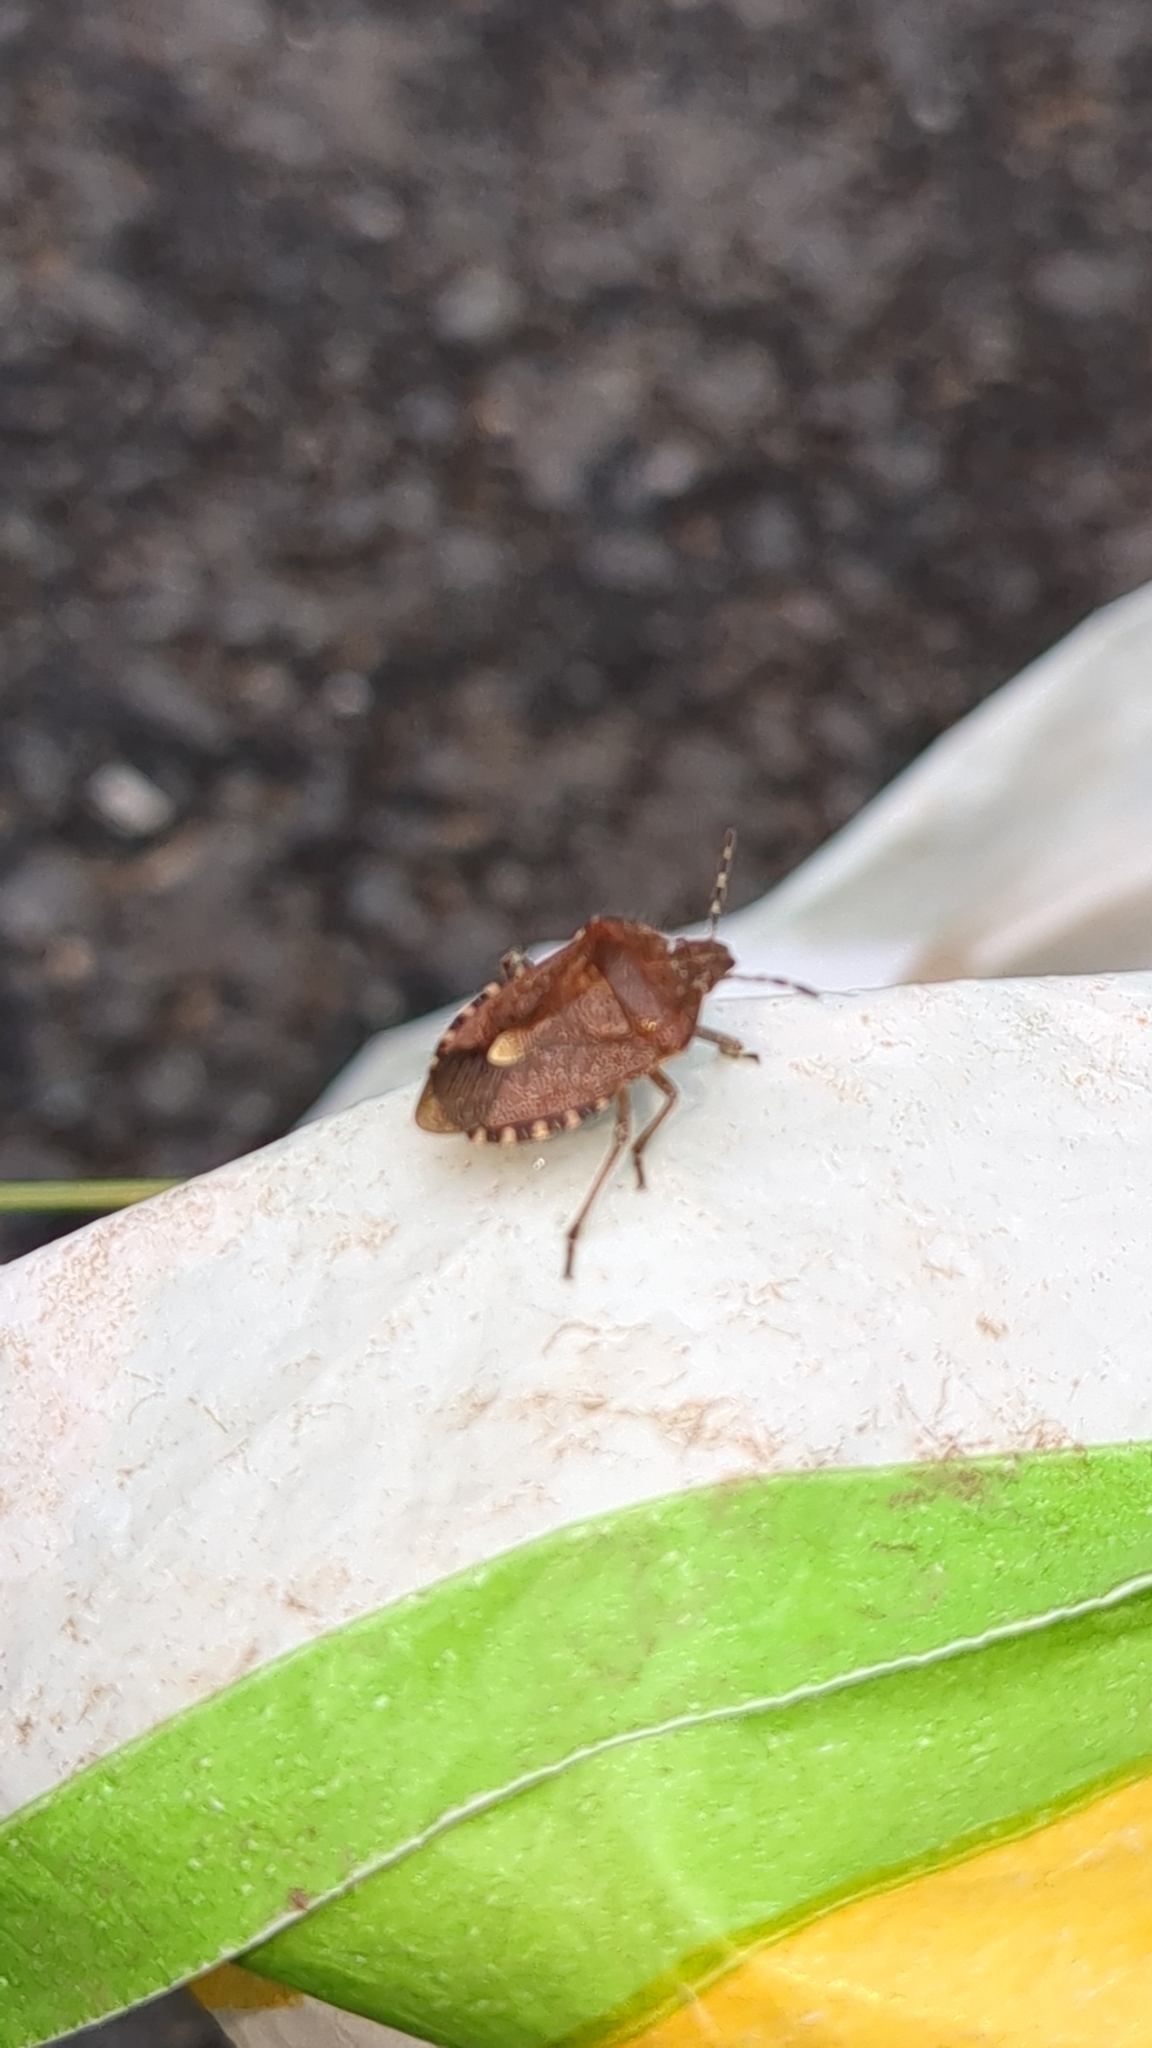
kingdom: Animalia
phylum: Arthropoda
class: Insecta
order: Hemiptera
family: Pentatomidae
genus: Dolycoris
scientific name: Dolycoris baccarum
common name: Sloe bug
